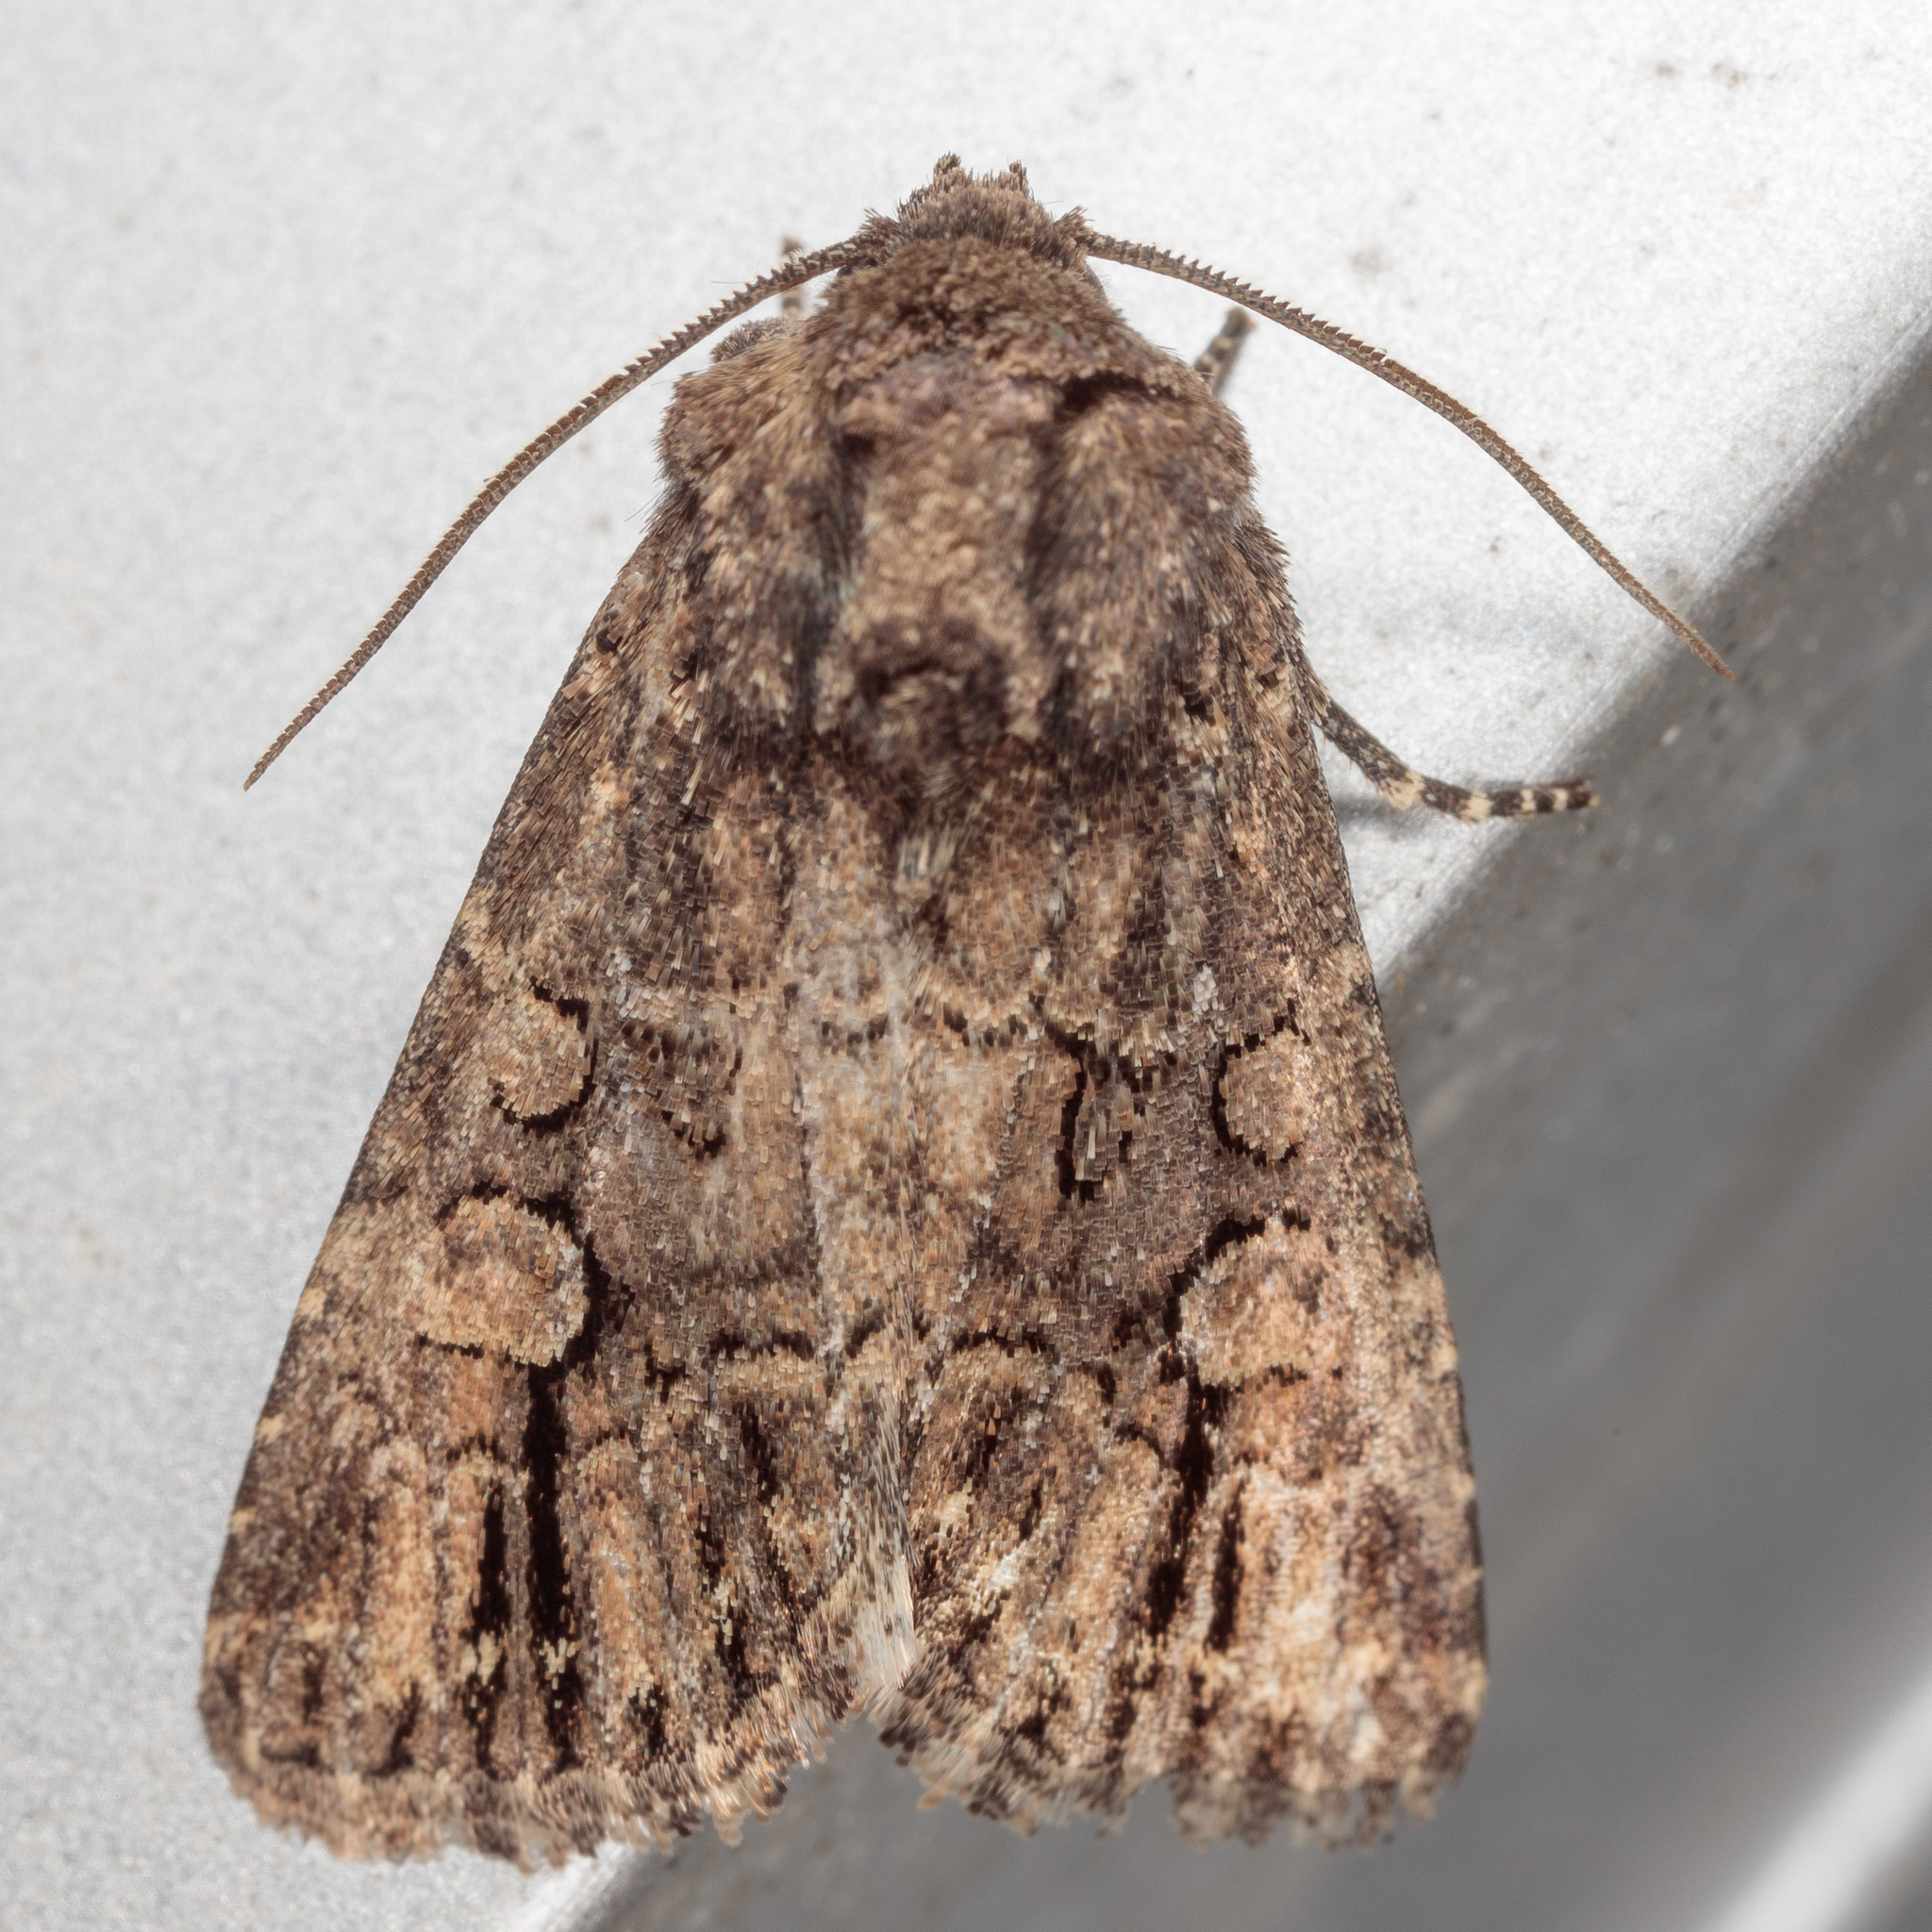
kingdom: Animalia
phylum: Arthropoda
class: Insecta
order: Lepidoptera
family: Noctuidae
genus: Hexorthodes
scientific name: Hexorthodes serrata
